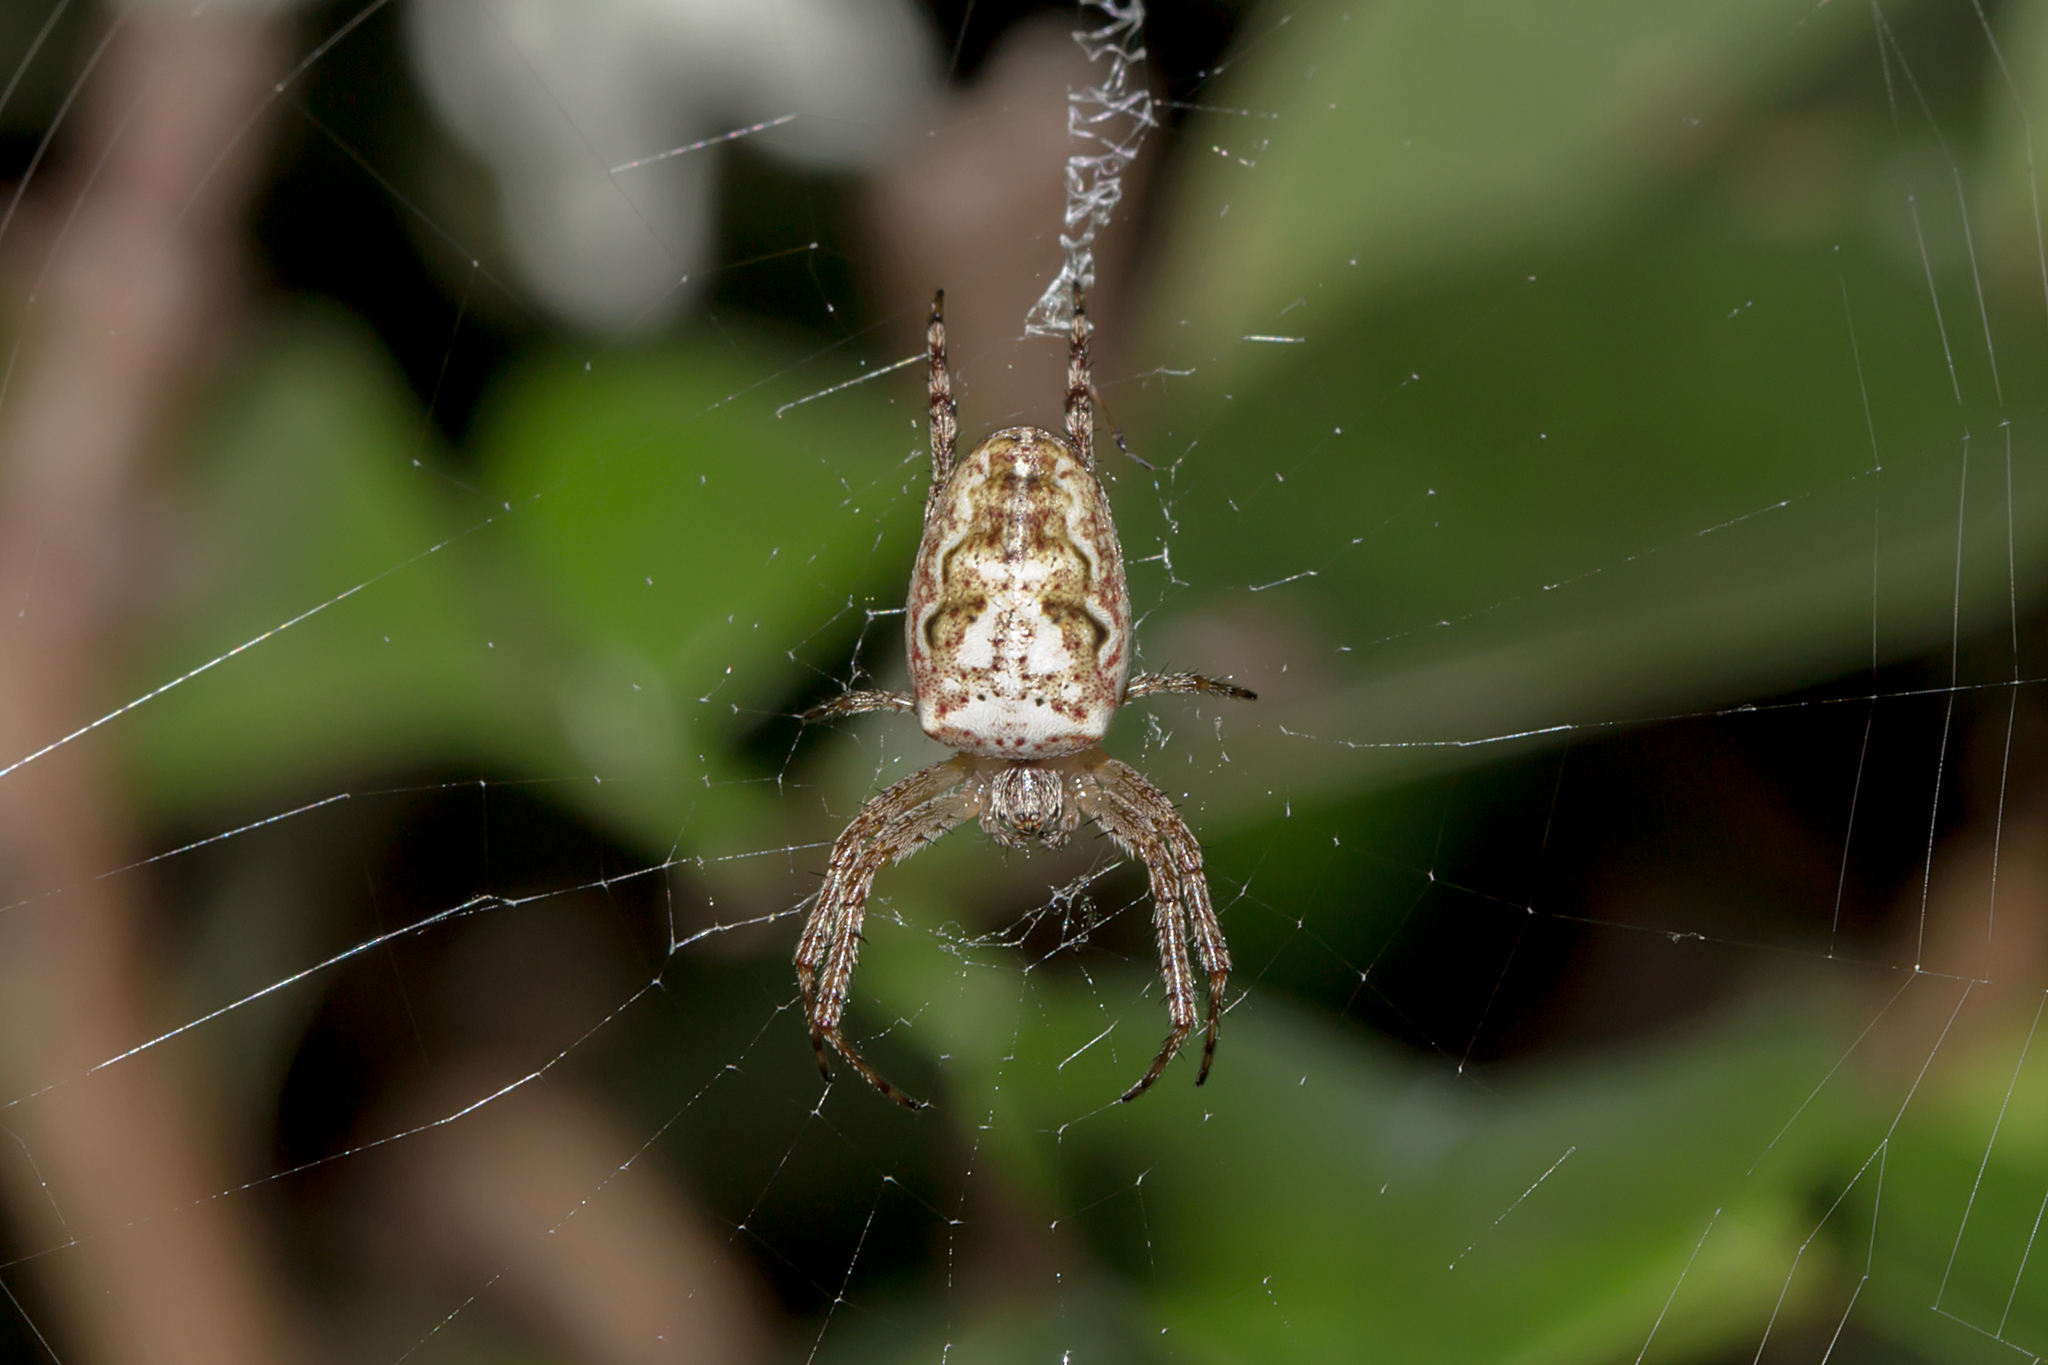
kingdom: Animalia
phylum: Arthropoda
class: Arachnida
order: Araneae
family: Araneidae
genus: Plebs
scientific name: Plebs eburnus
